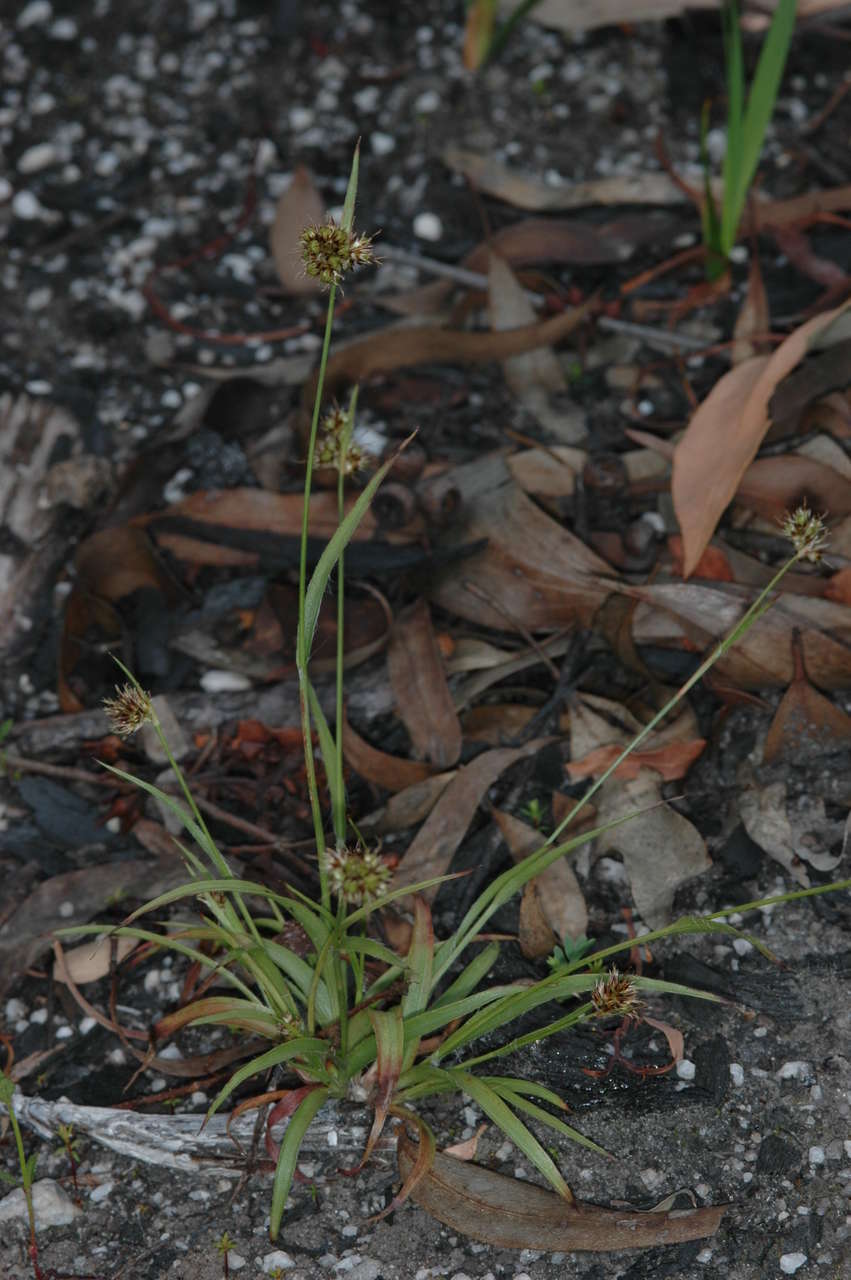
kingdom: Plantae
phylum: Tracheophyta
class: Liliopsida
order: Poales
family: Juncaceae
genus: Luzula
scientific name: Luzula flaccida
